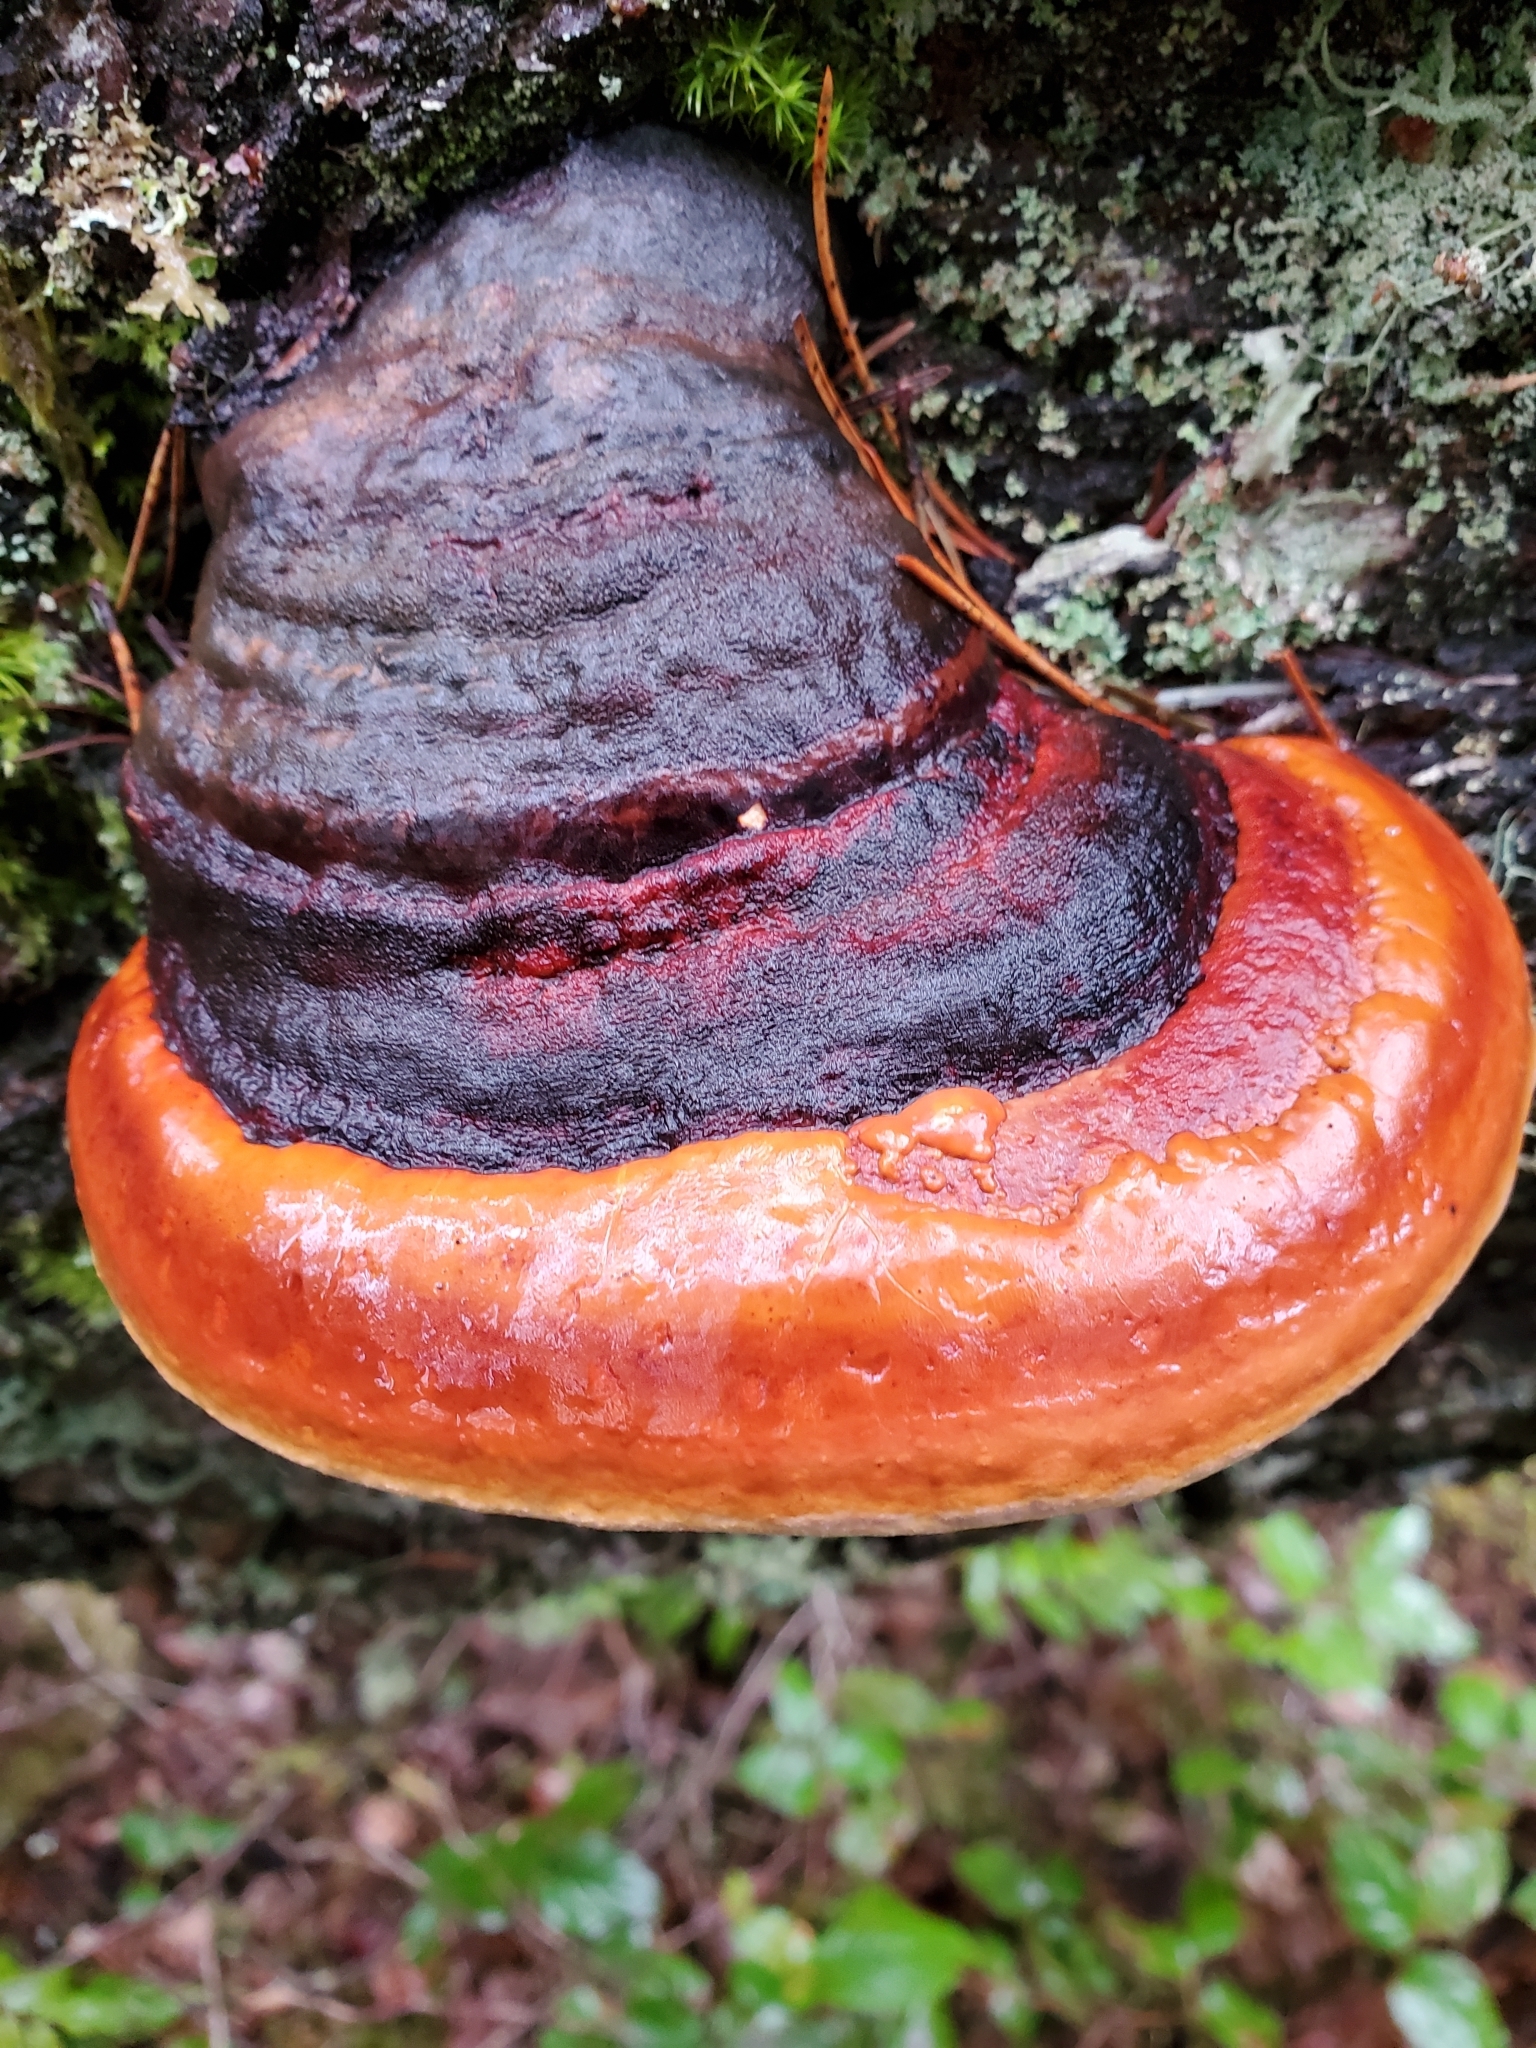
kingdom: Fungi
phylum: Basidiomycota
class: Agaricomycetes
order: Polyporales
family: Fomitopsidaceae
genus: Fomitopsis
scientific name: Fomitopsis mounceae
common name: Northern red belt
